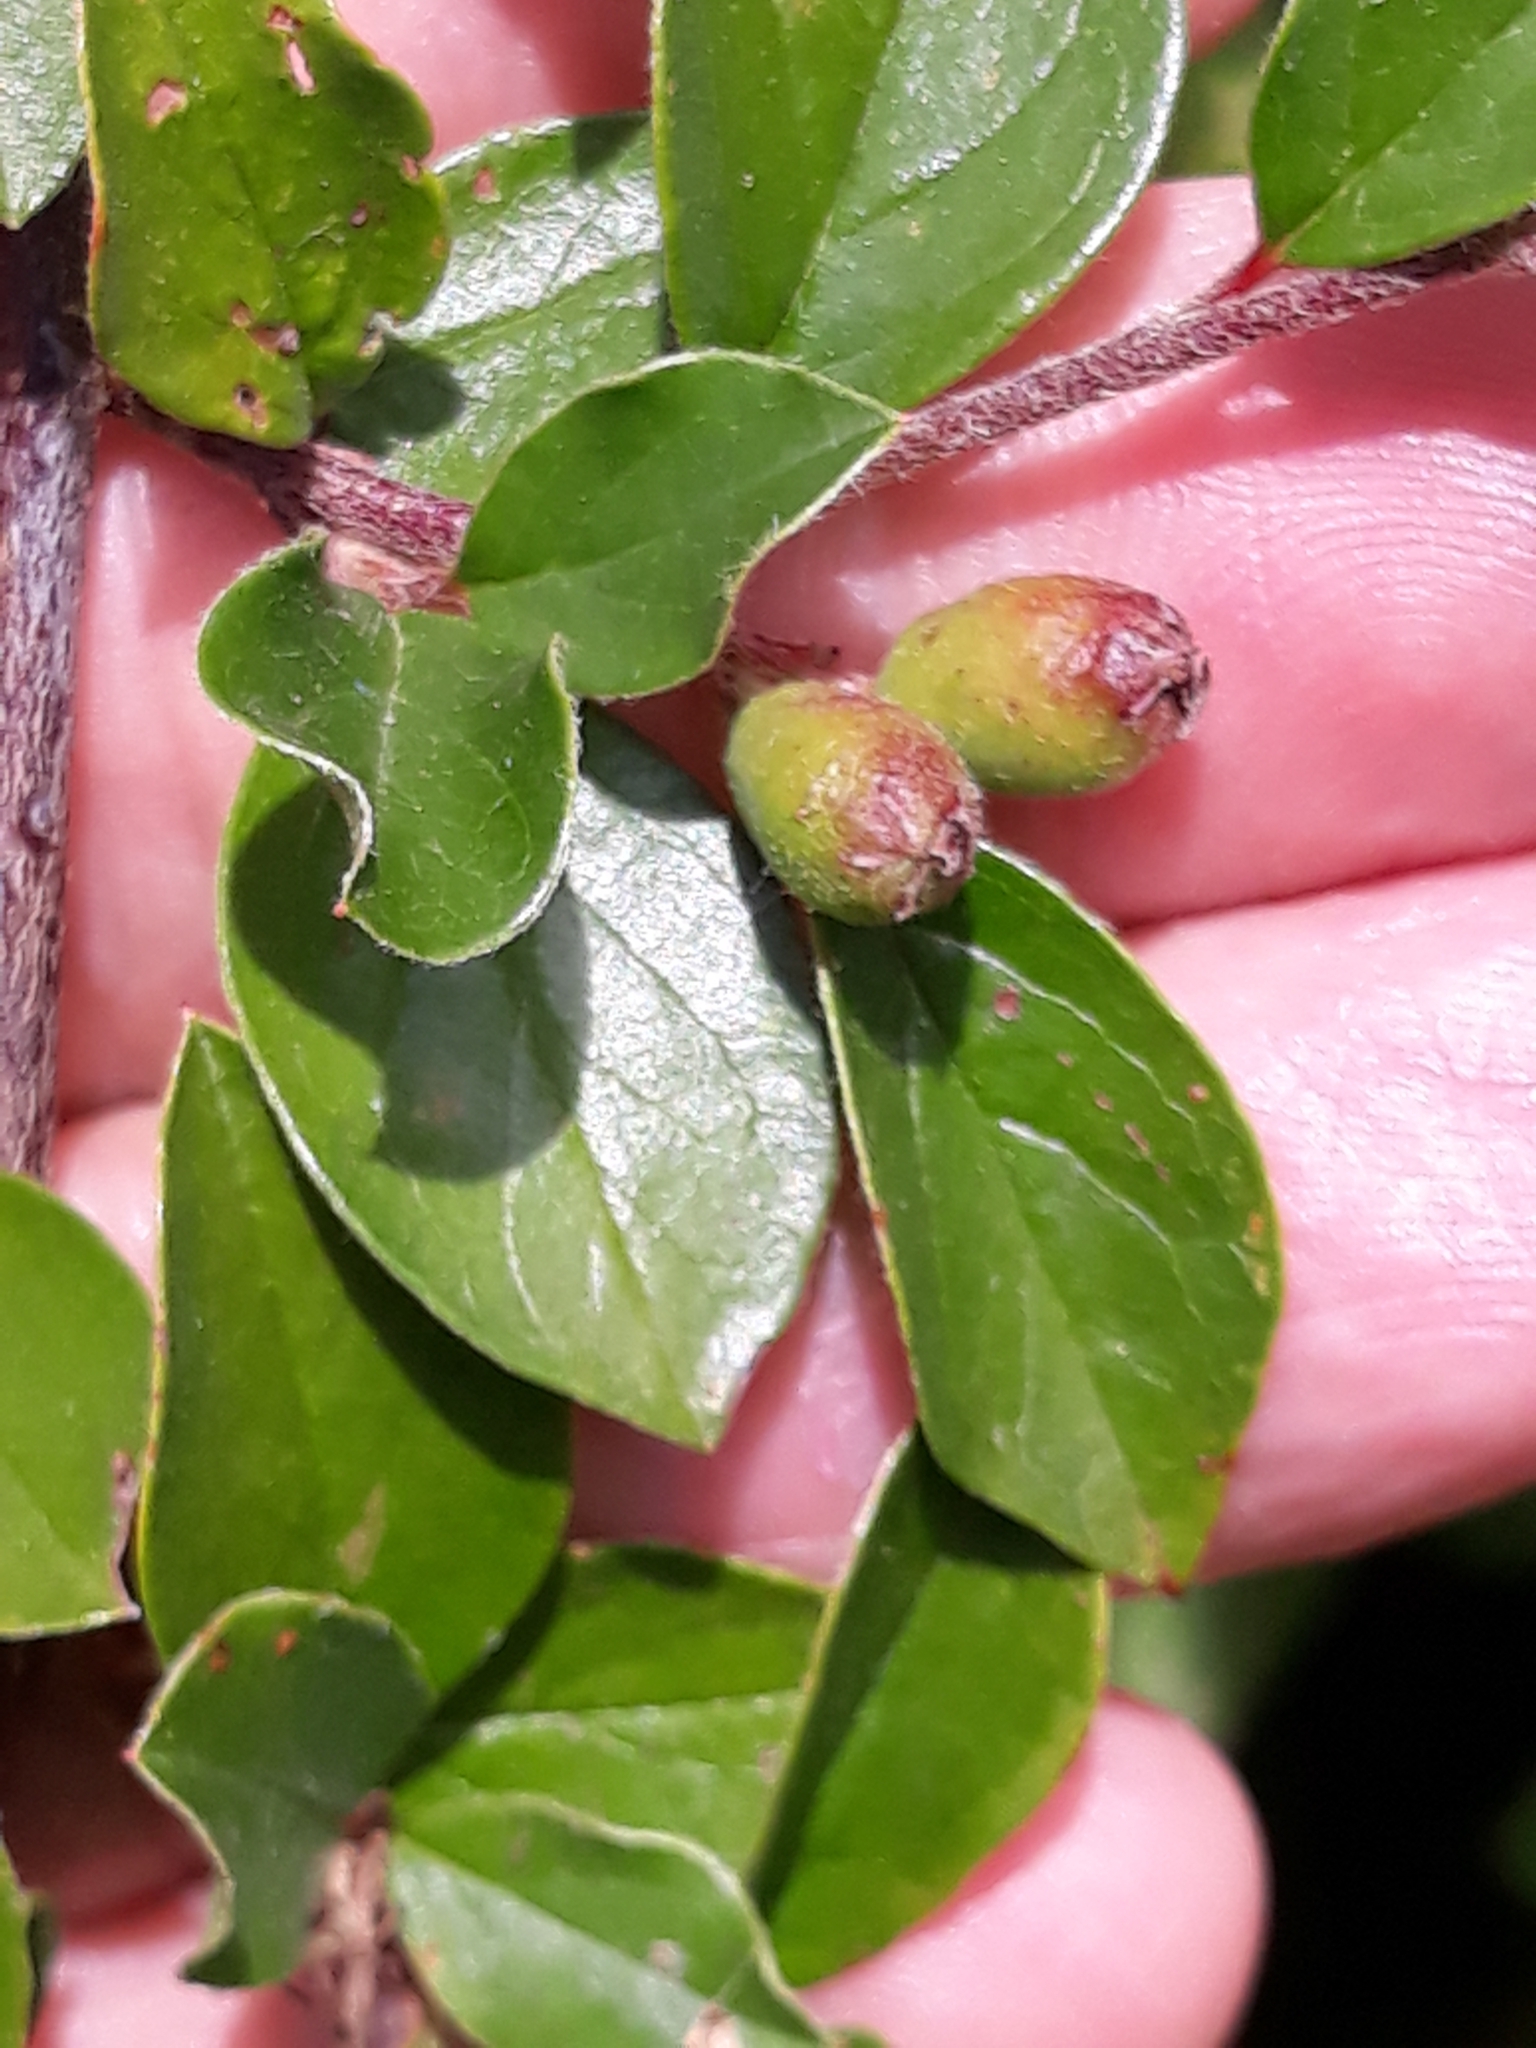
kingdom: Plantae
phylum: Tracheophyta
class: Magnoliopsida
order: Rosales
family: Rosaceae
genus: Cotoneaster
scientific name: Cotoneaster divaricatus
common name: Spreading cotoneaster
